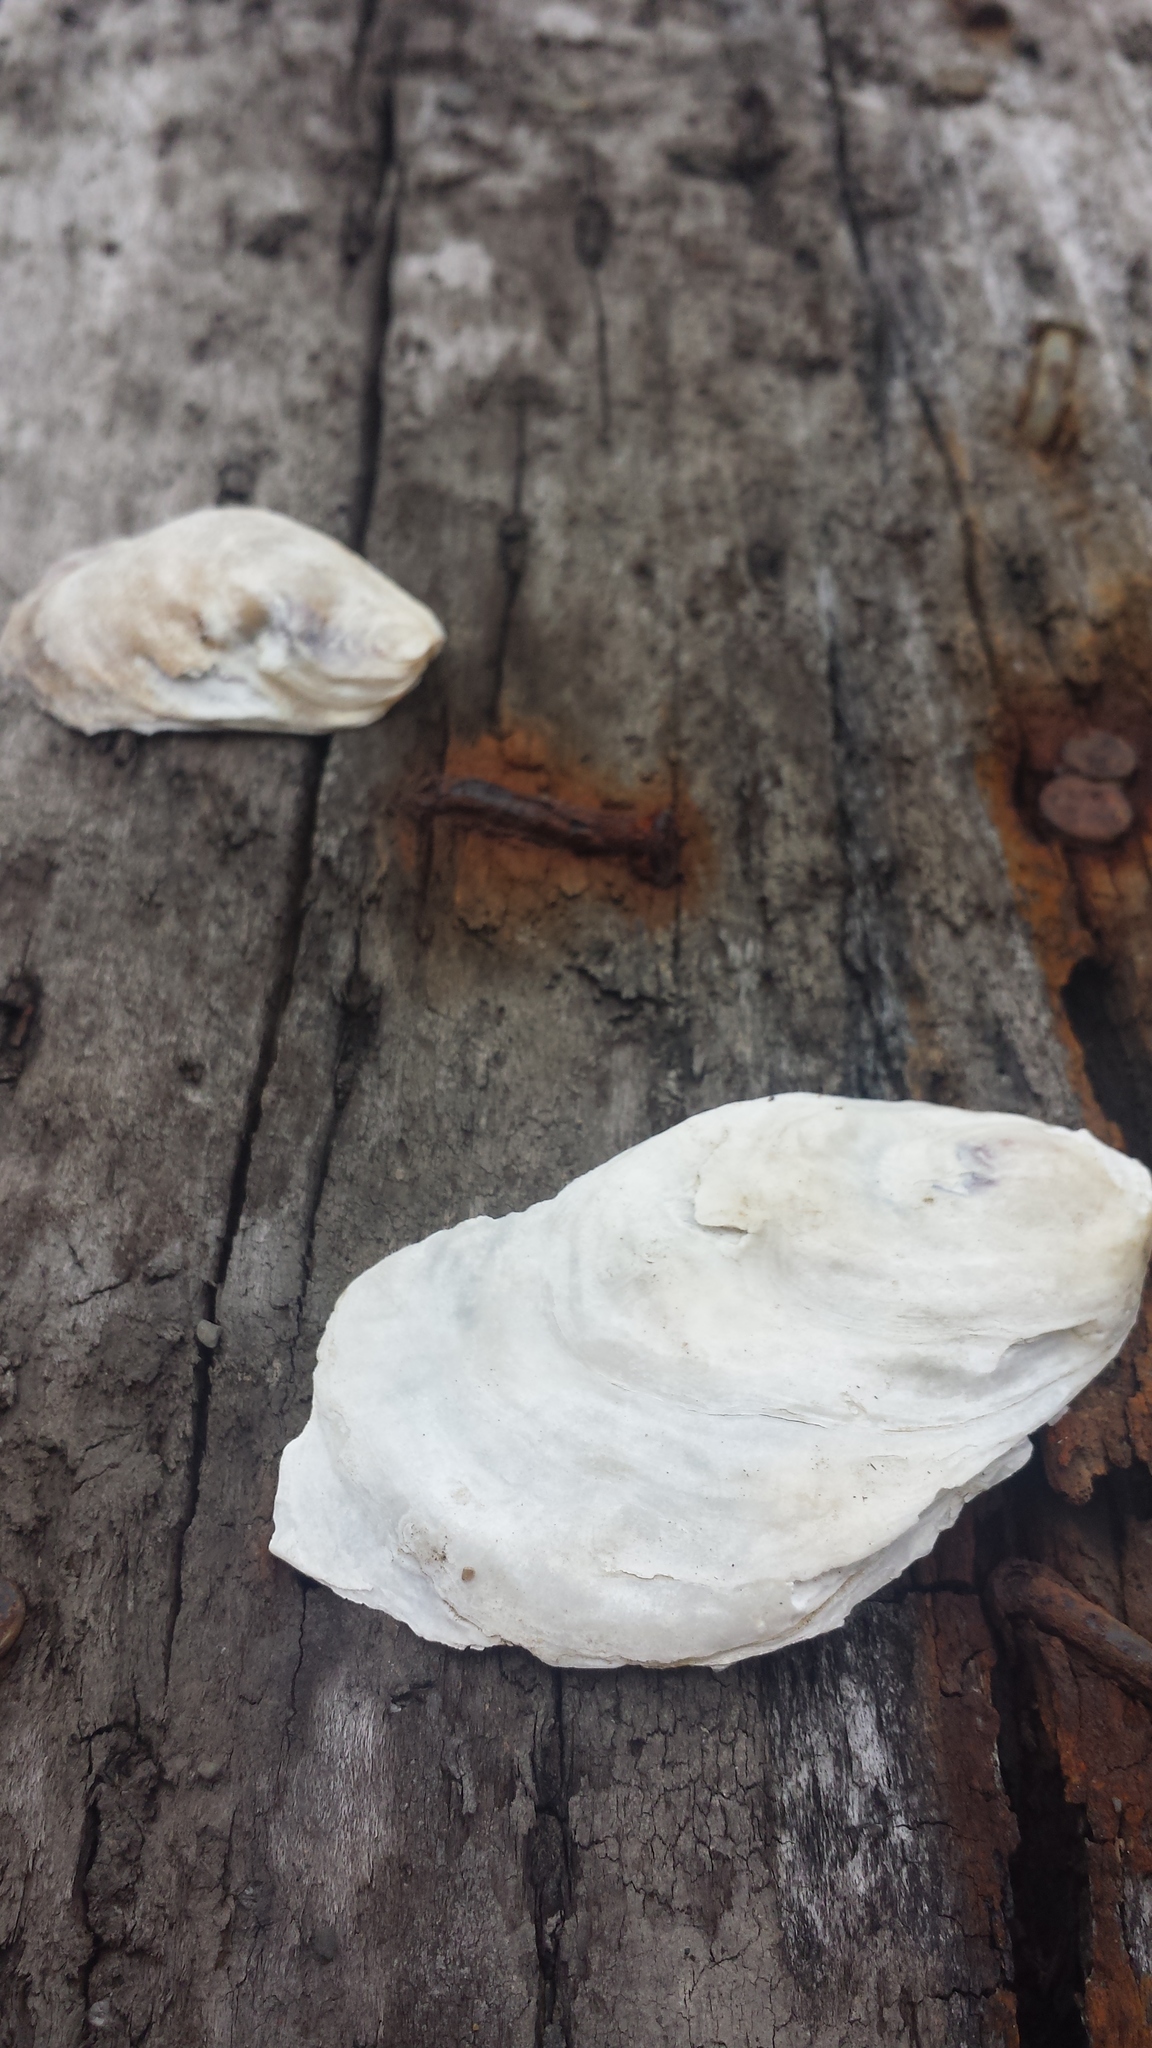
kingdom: Animalia
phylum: Mollusca
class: Bivalvia
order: Ostreida
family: Ostreidae
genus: Crassostrea
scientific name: Crassostrea virginica
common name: American oyster
